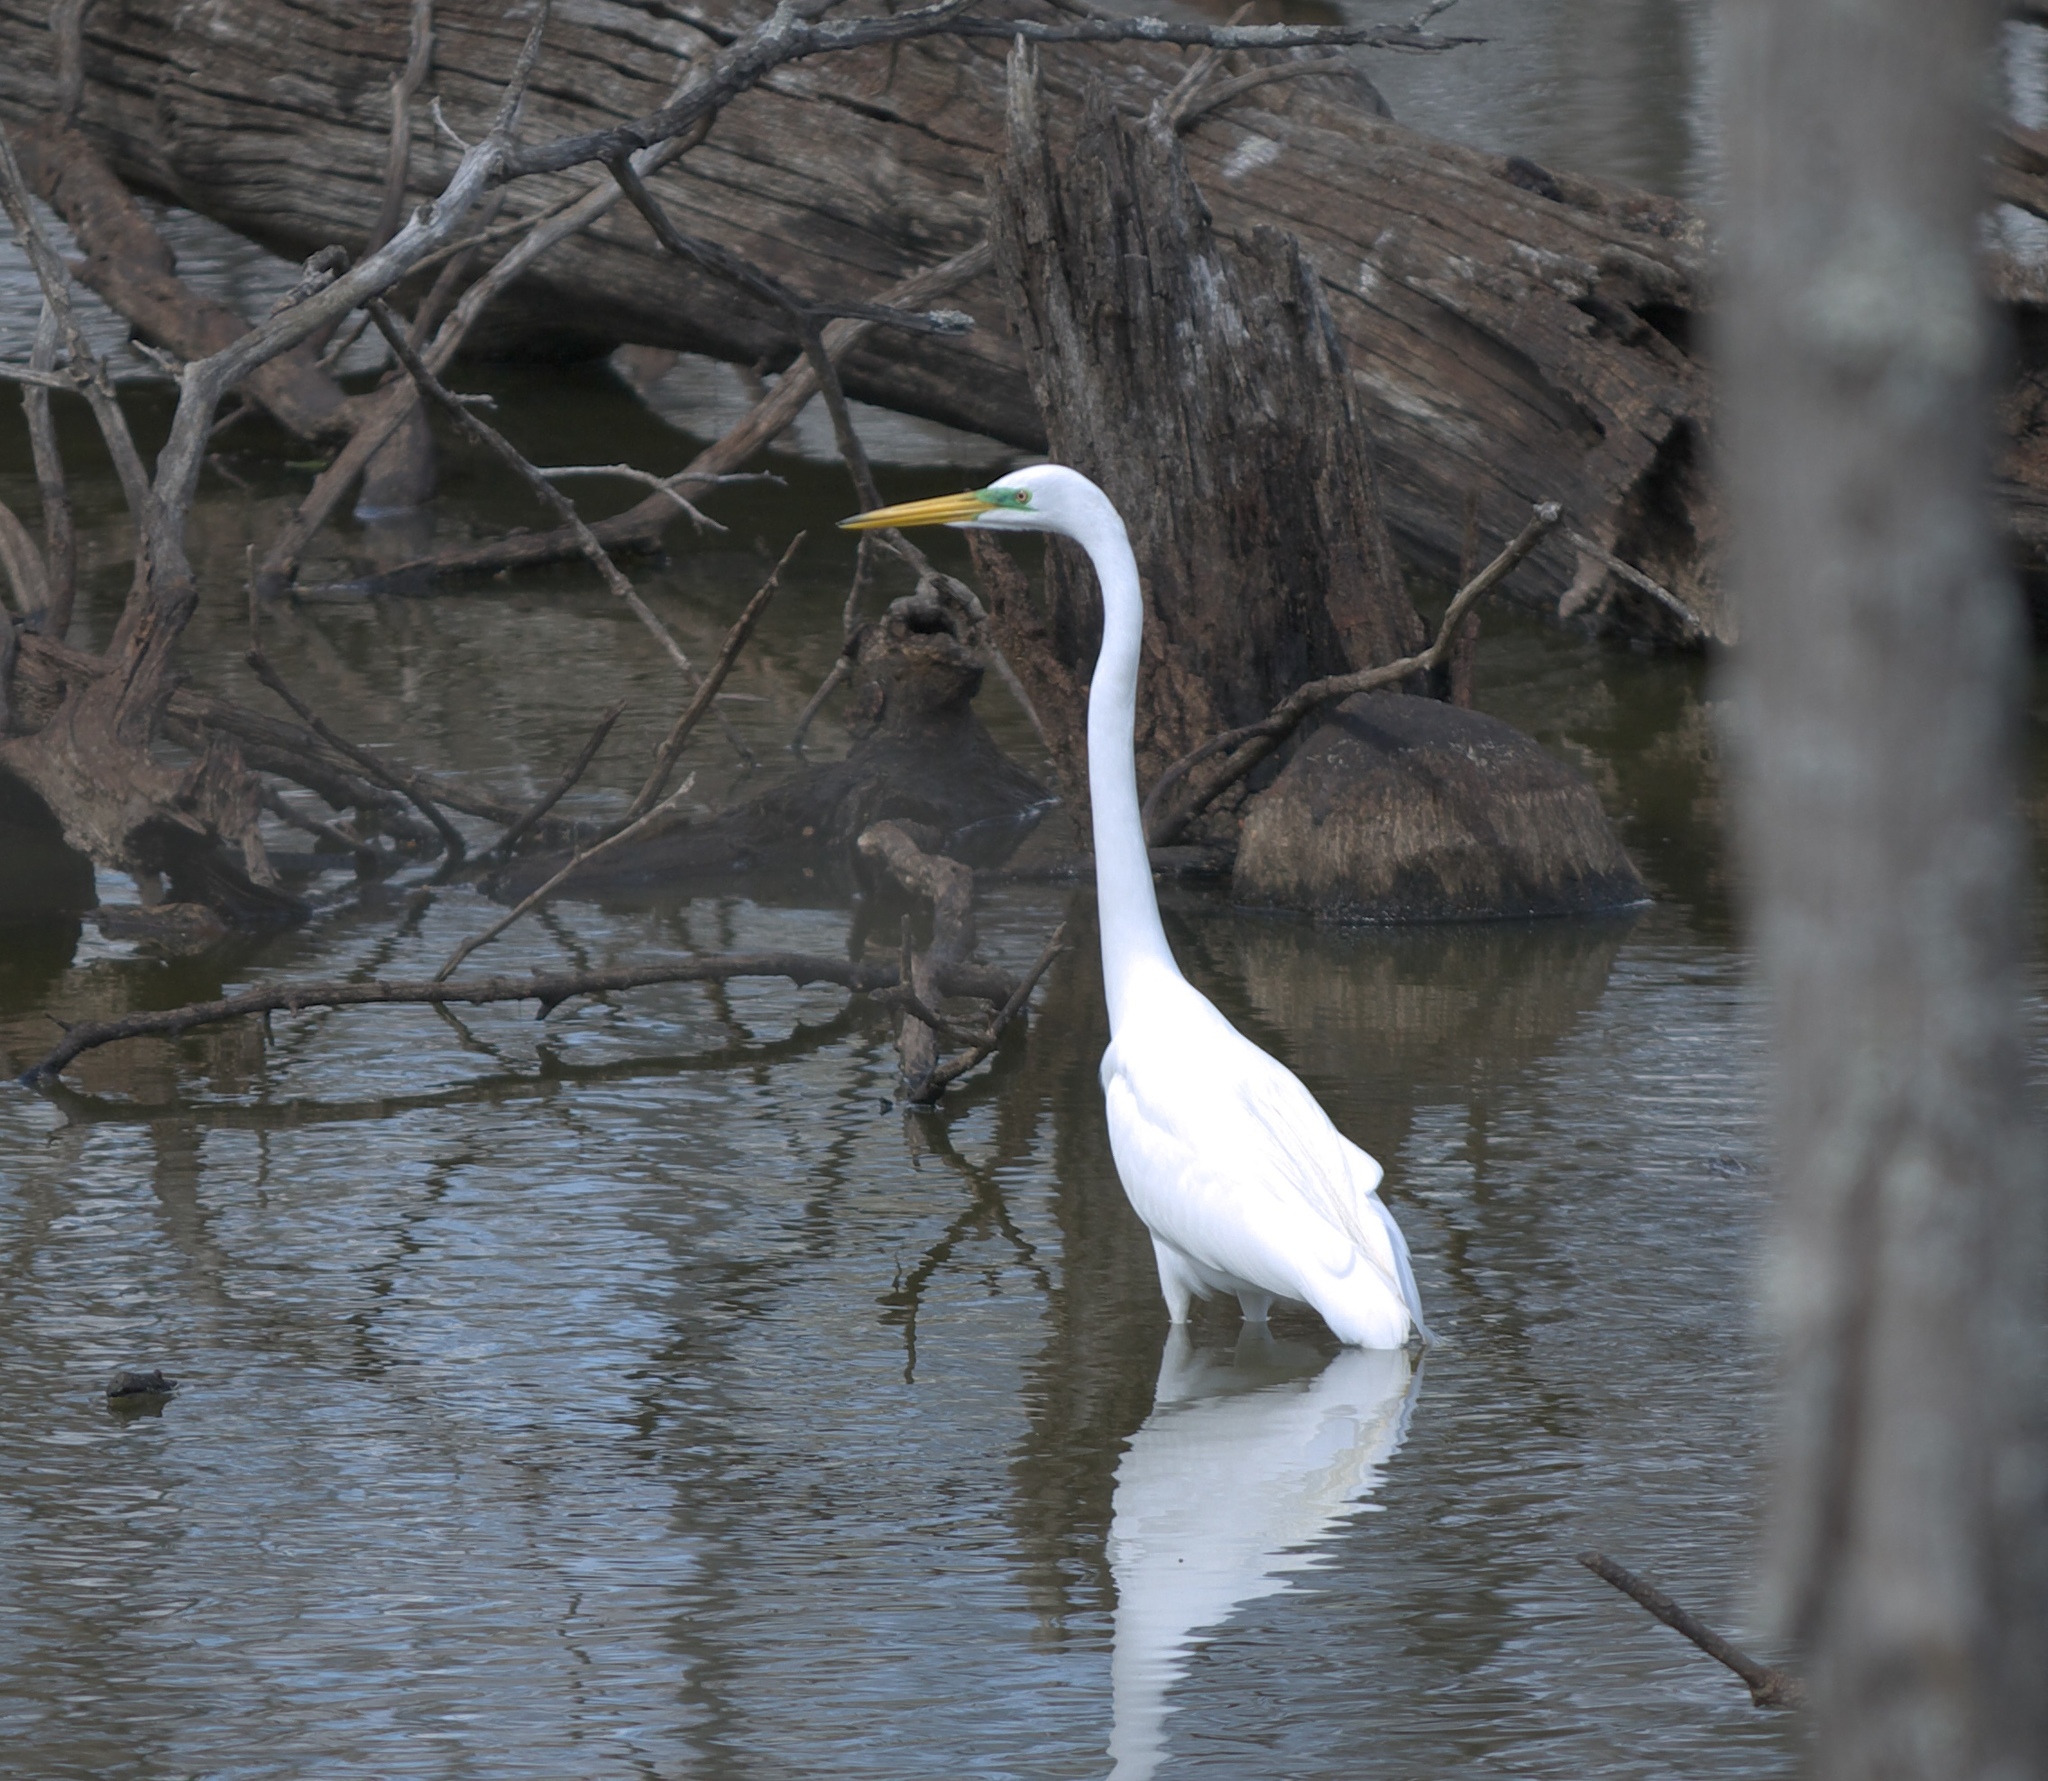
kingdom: Animalia
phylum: Chordata
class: Aves
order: Pelecaniformes
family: Ardeidae
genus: Ardea
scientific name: Ardea alba
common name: Great egret
